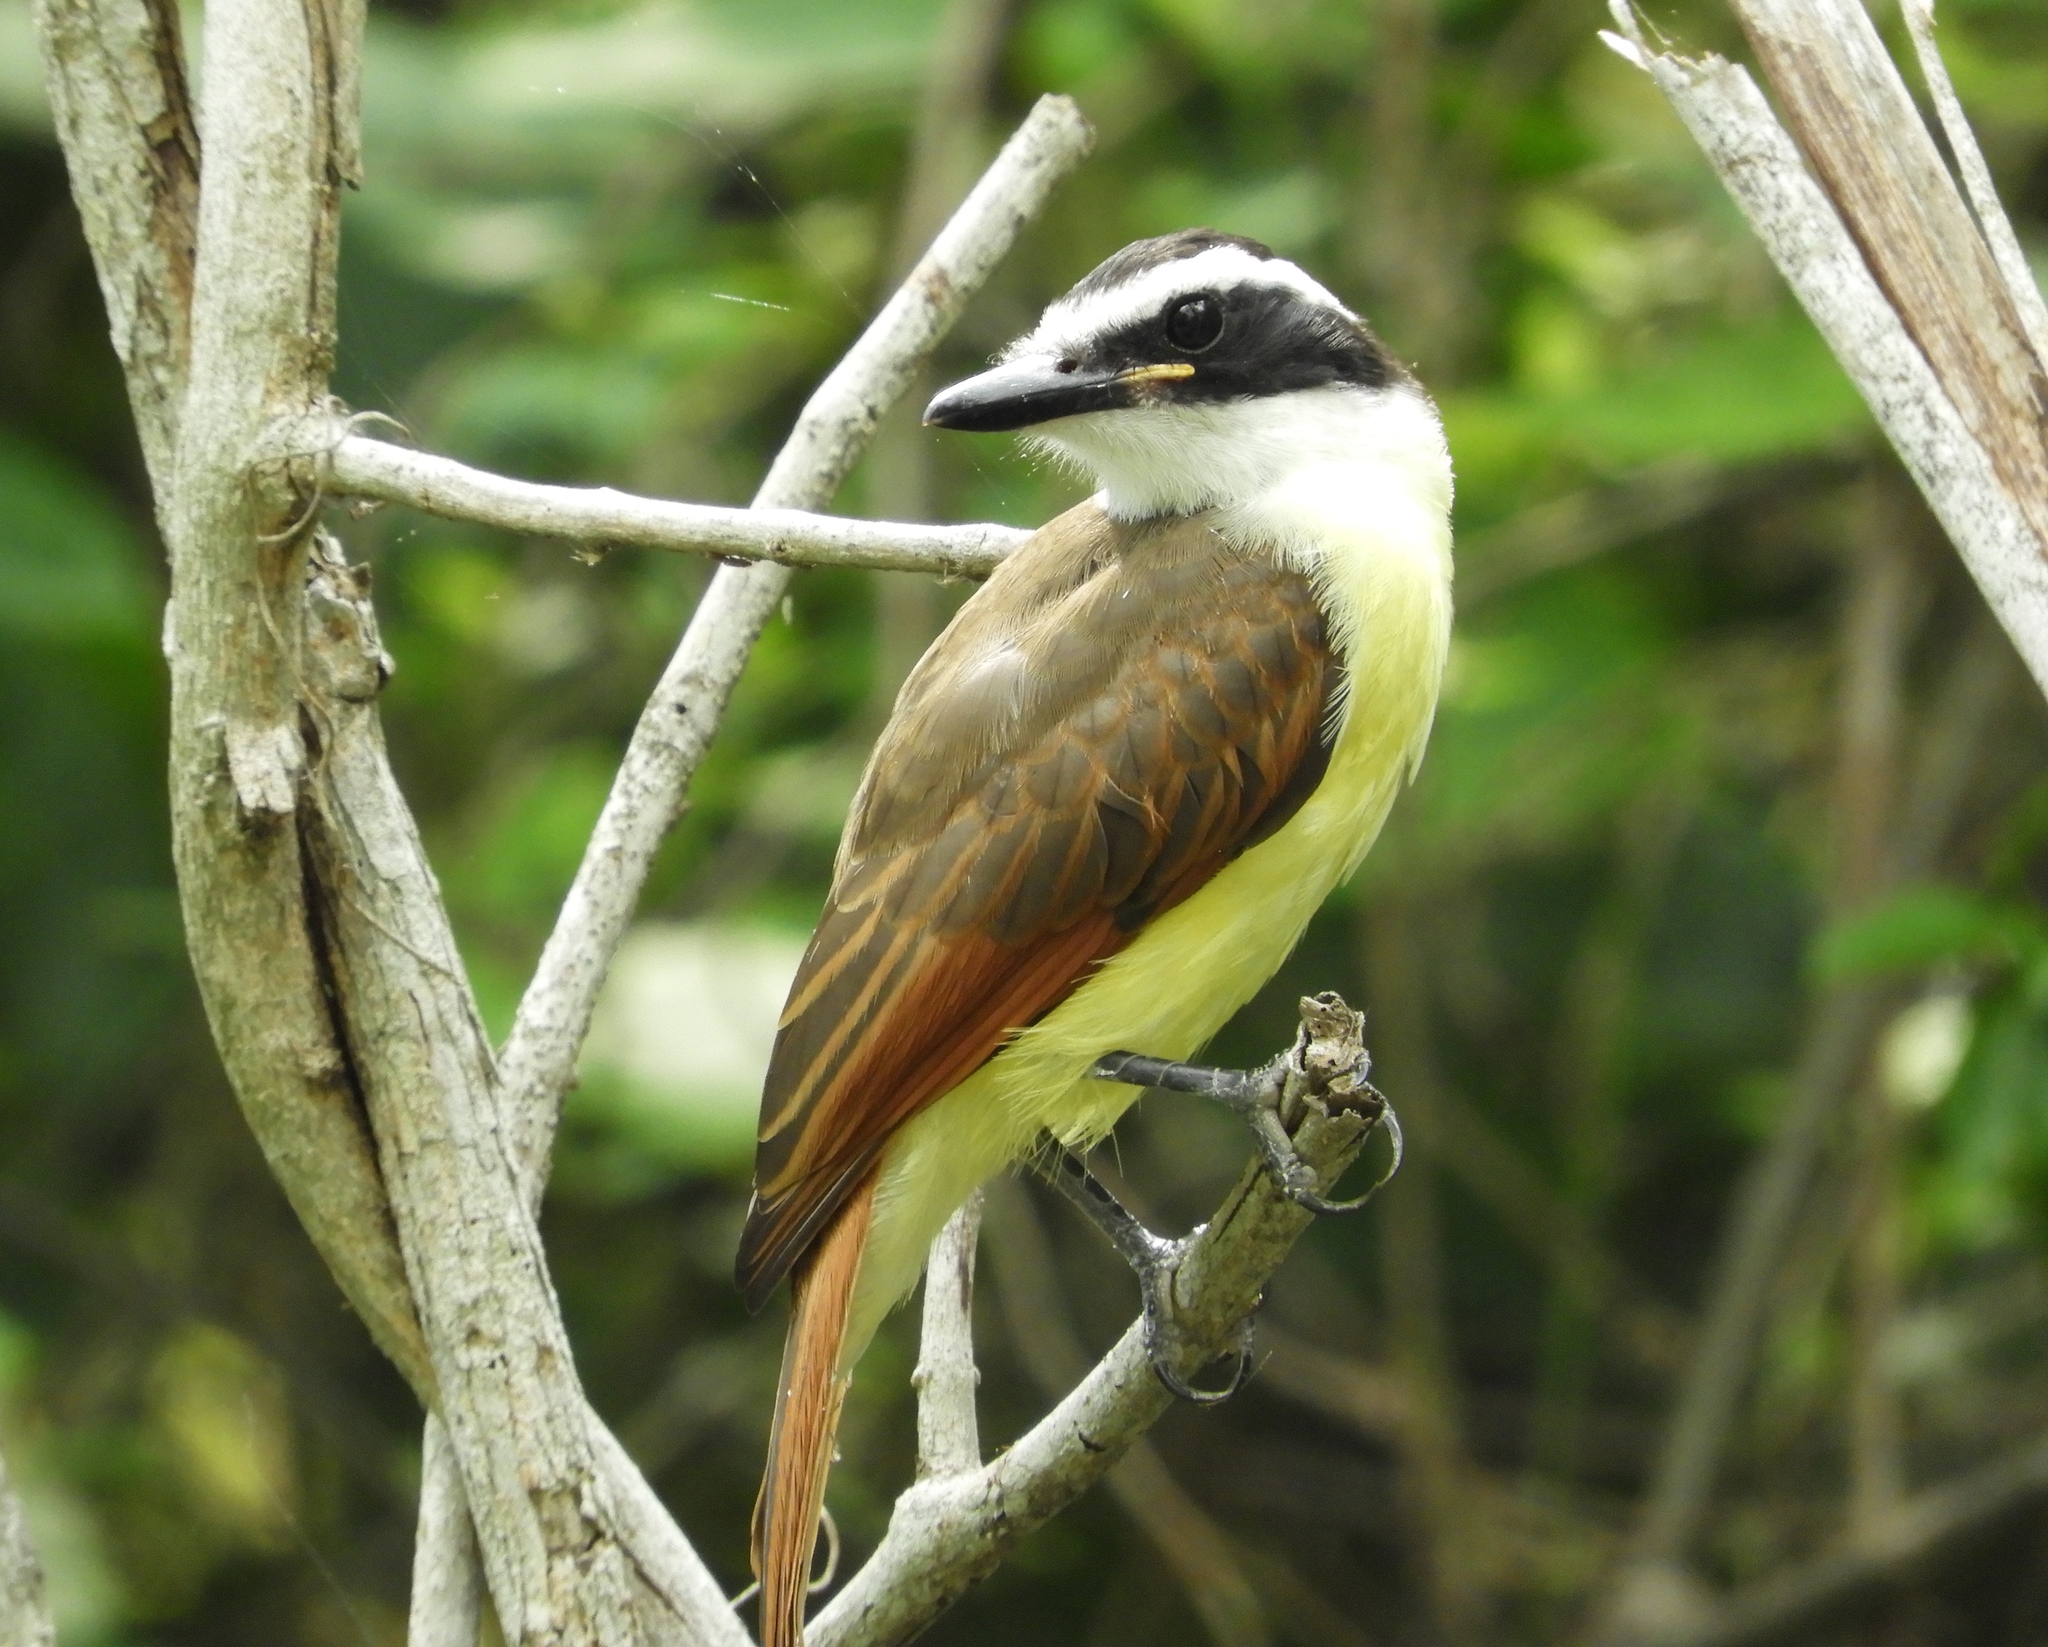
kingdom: Animalia
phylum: Chordata
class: Aves
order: Passeriformes
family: Tyrannidae
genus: Pitangus
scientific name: Pitangus sulphuratus
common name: Great kiskadee
